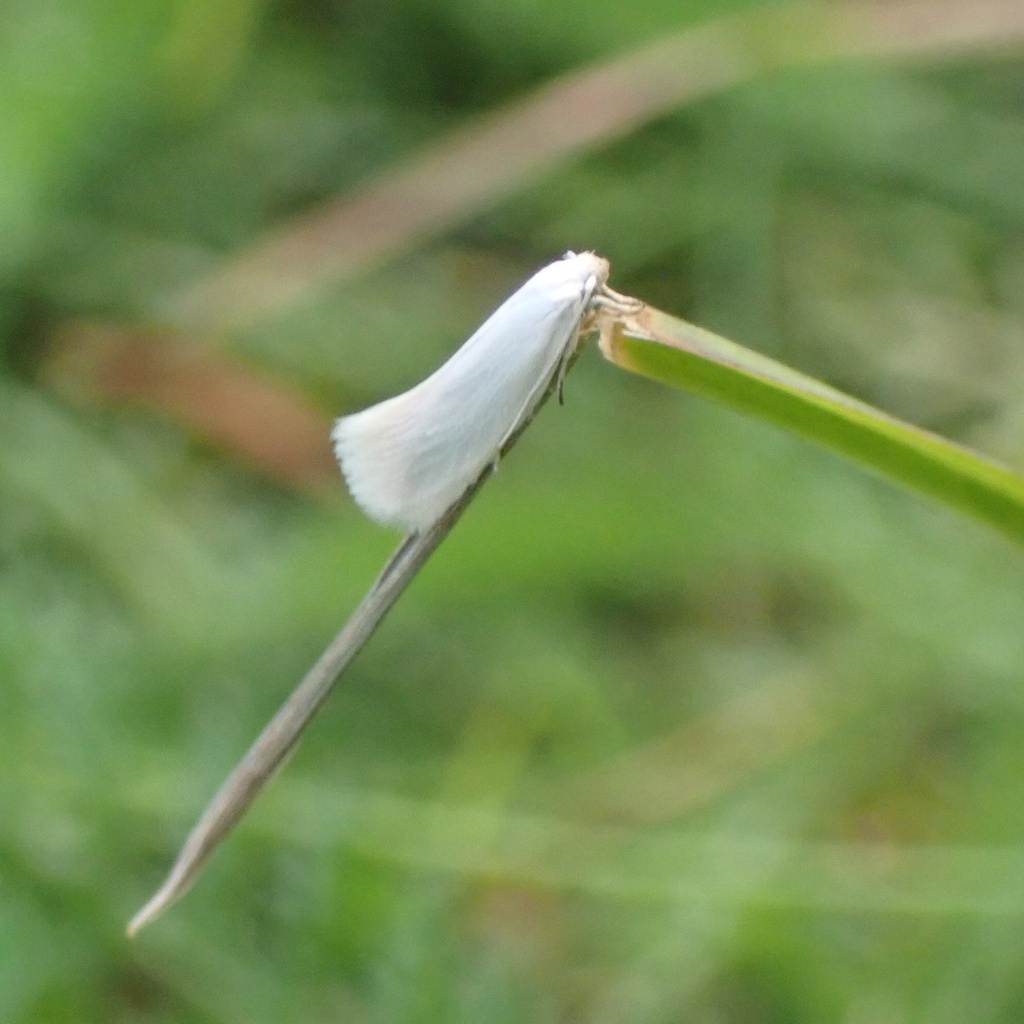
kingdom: Animalia
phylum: Arthropoda
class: Insecta
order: Lepidoptera
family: Elachistidae
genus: Elachista
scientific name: Elachista argentella
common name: Swan-feather dwarf
